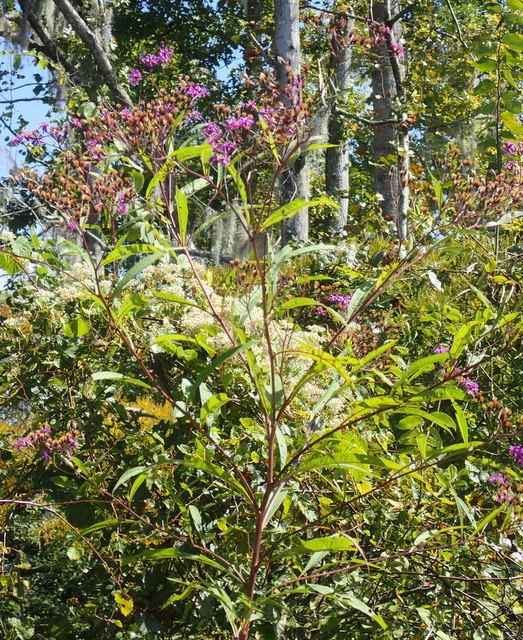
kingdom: Plantae
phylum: Tracheophyta
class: Magnoliopsida
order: Asterales
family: Asteraceae
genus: Vernonia
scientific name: Vernonia gigantea
